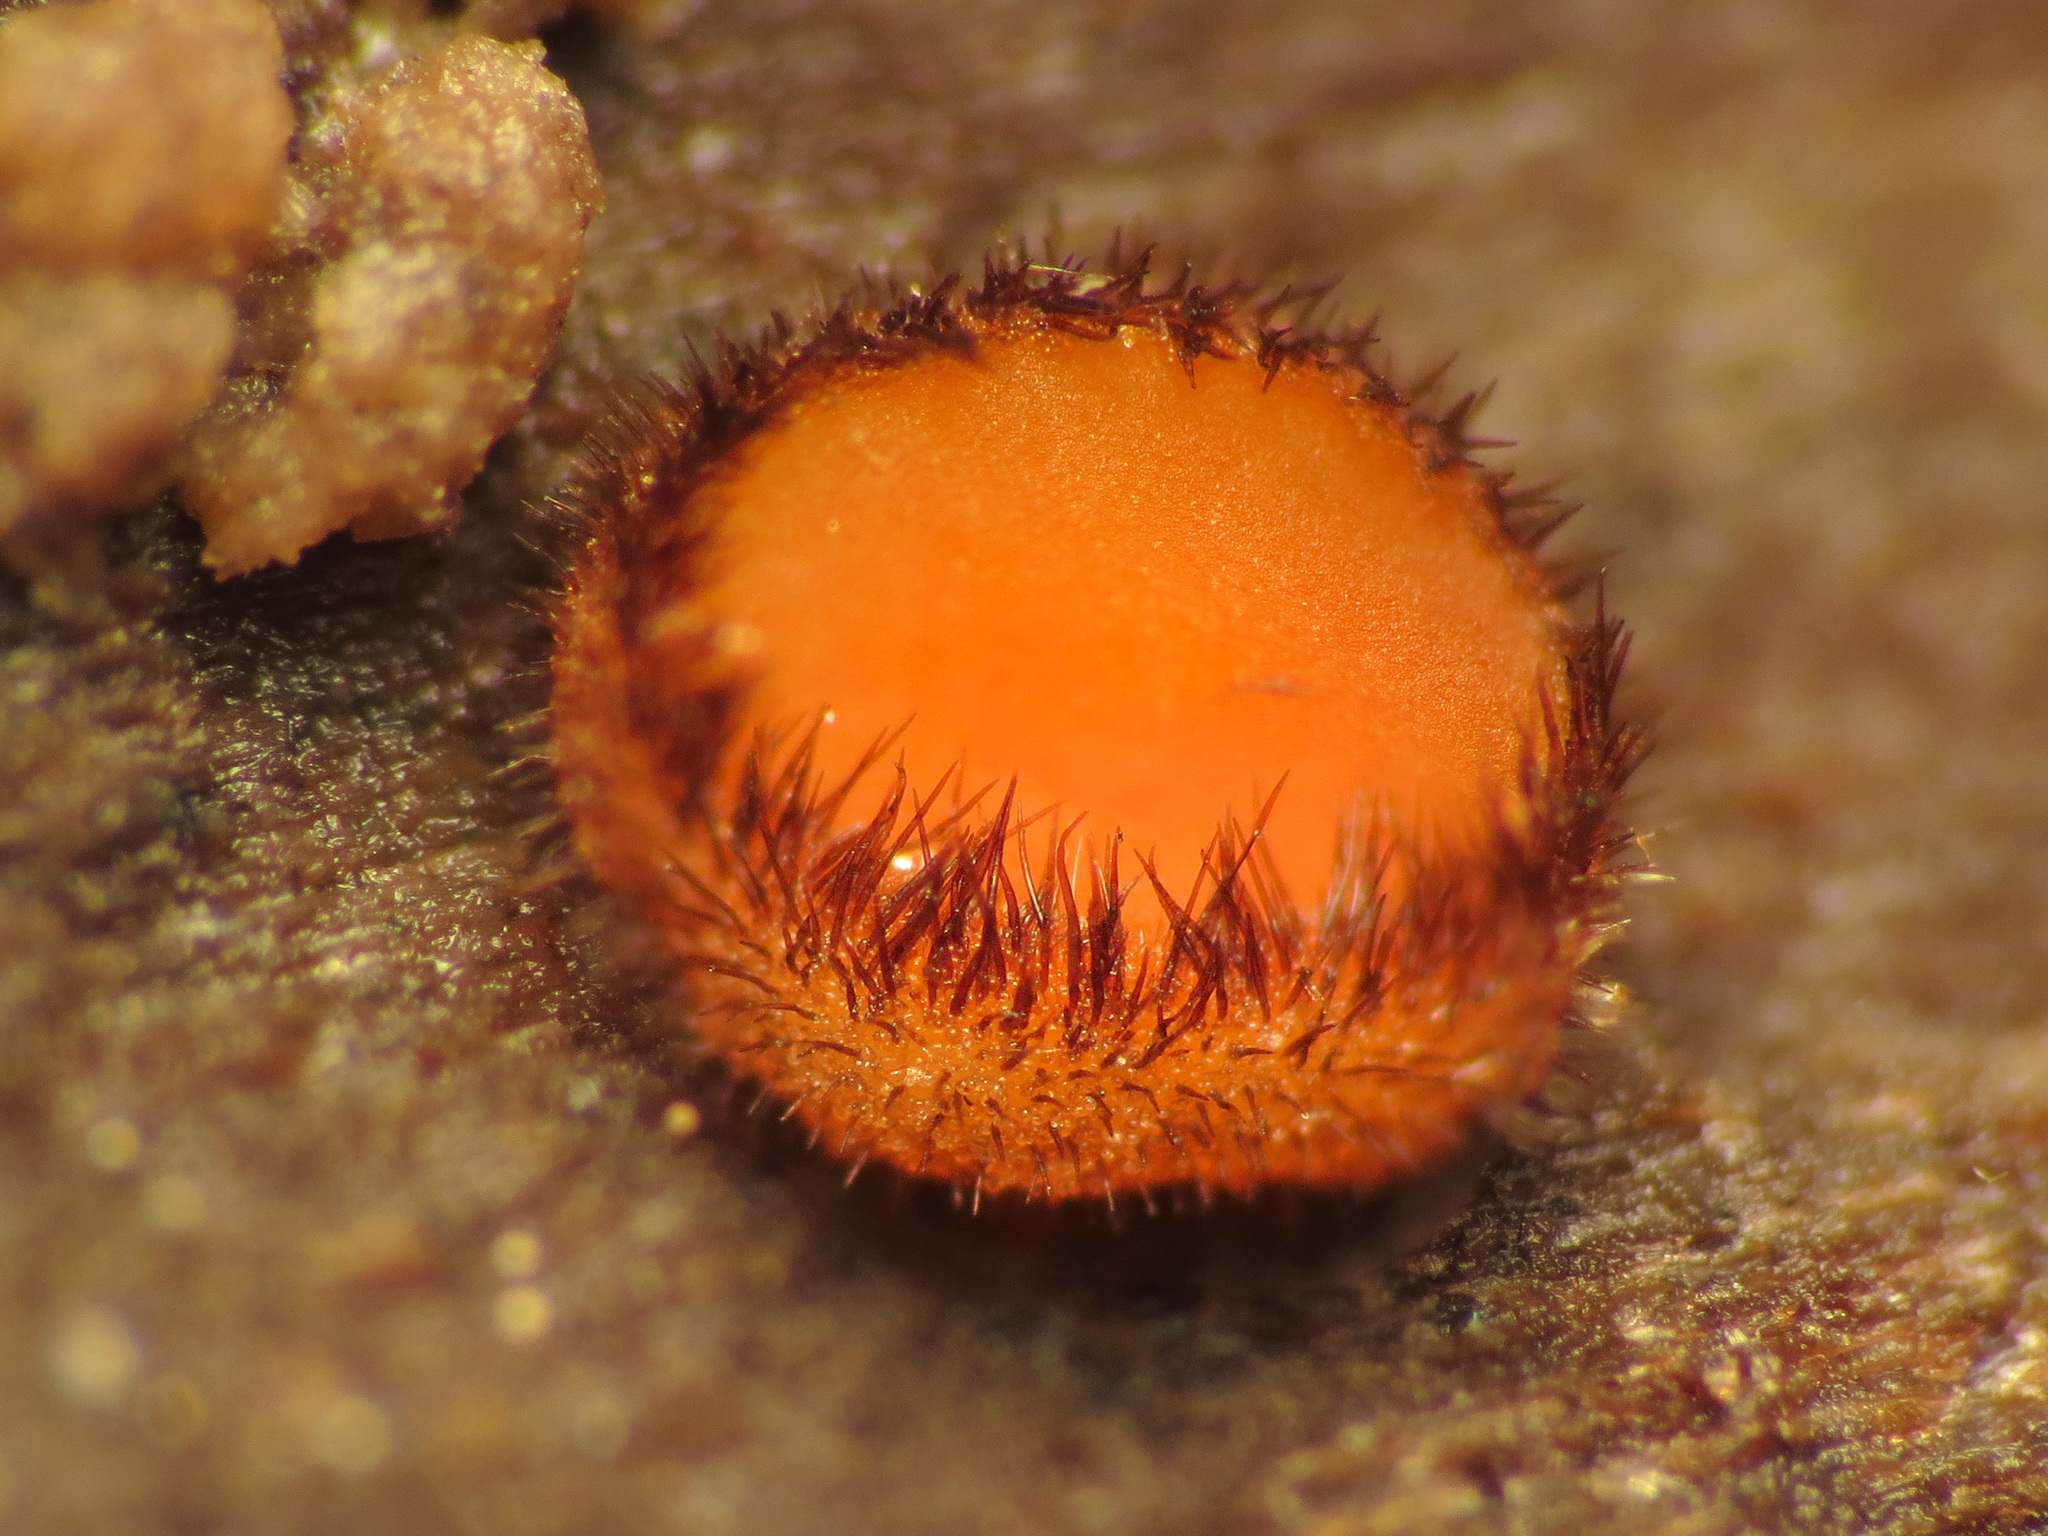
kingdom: Fungi
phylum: Ascomycota
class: Pezizomycetes
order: Pezizales
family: Pyronemataceae
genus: Scutellinia
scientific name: Scutellinia scutellata
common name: Common eyelash
